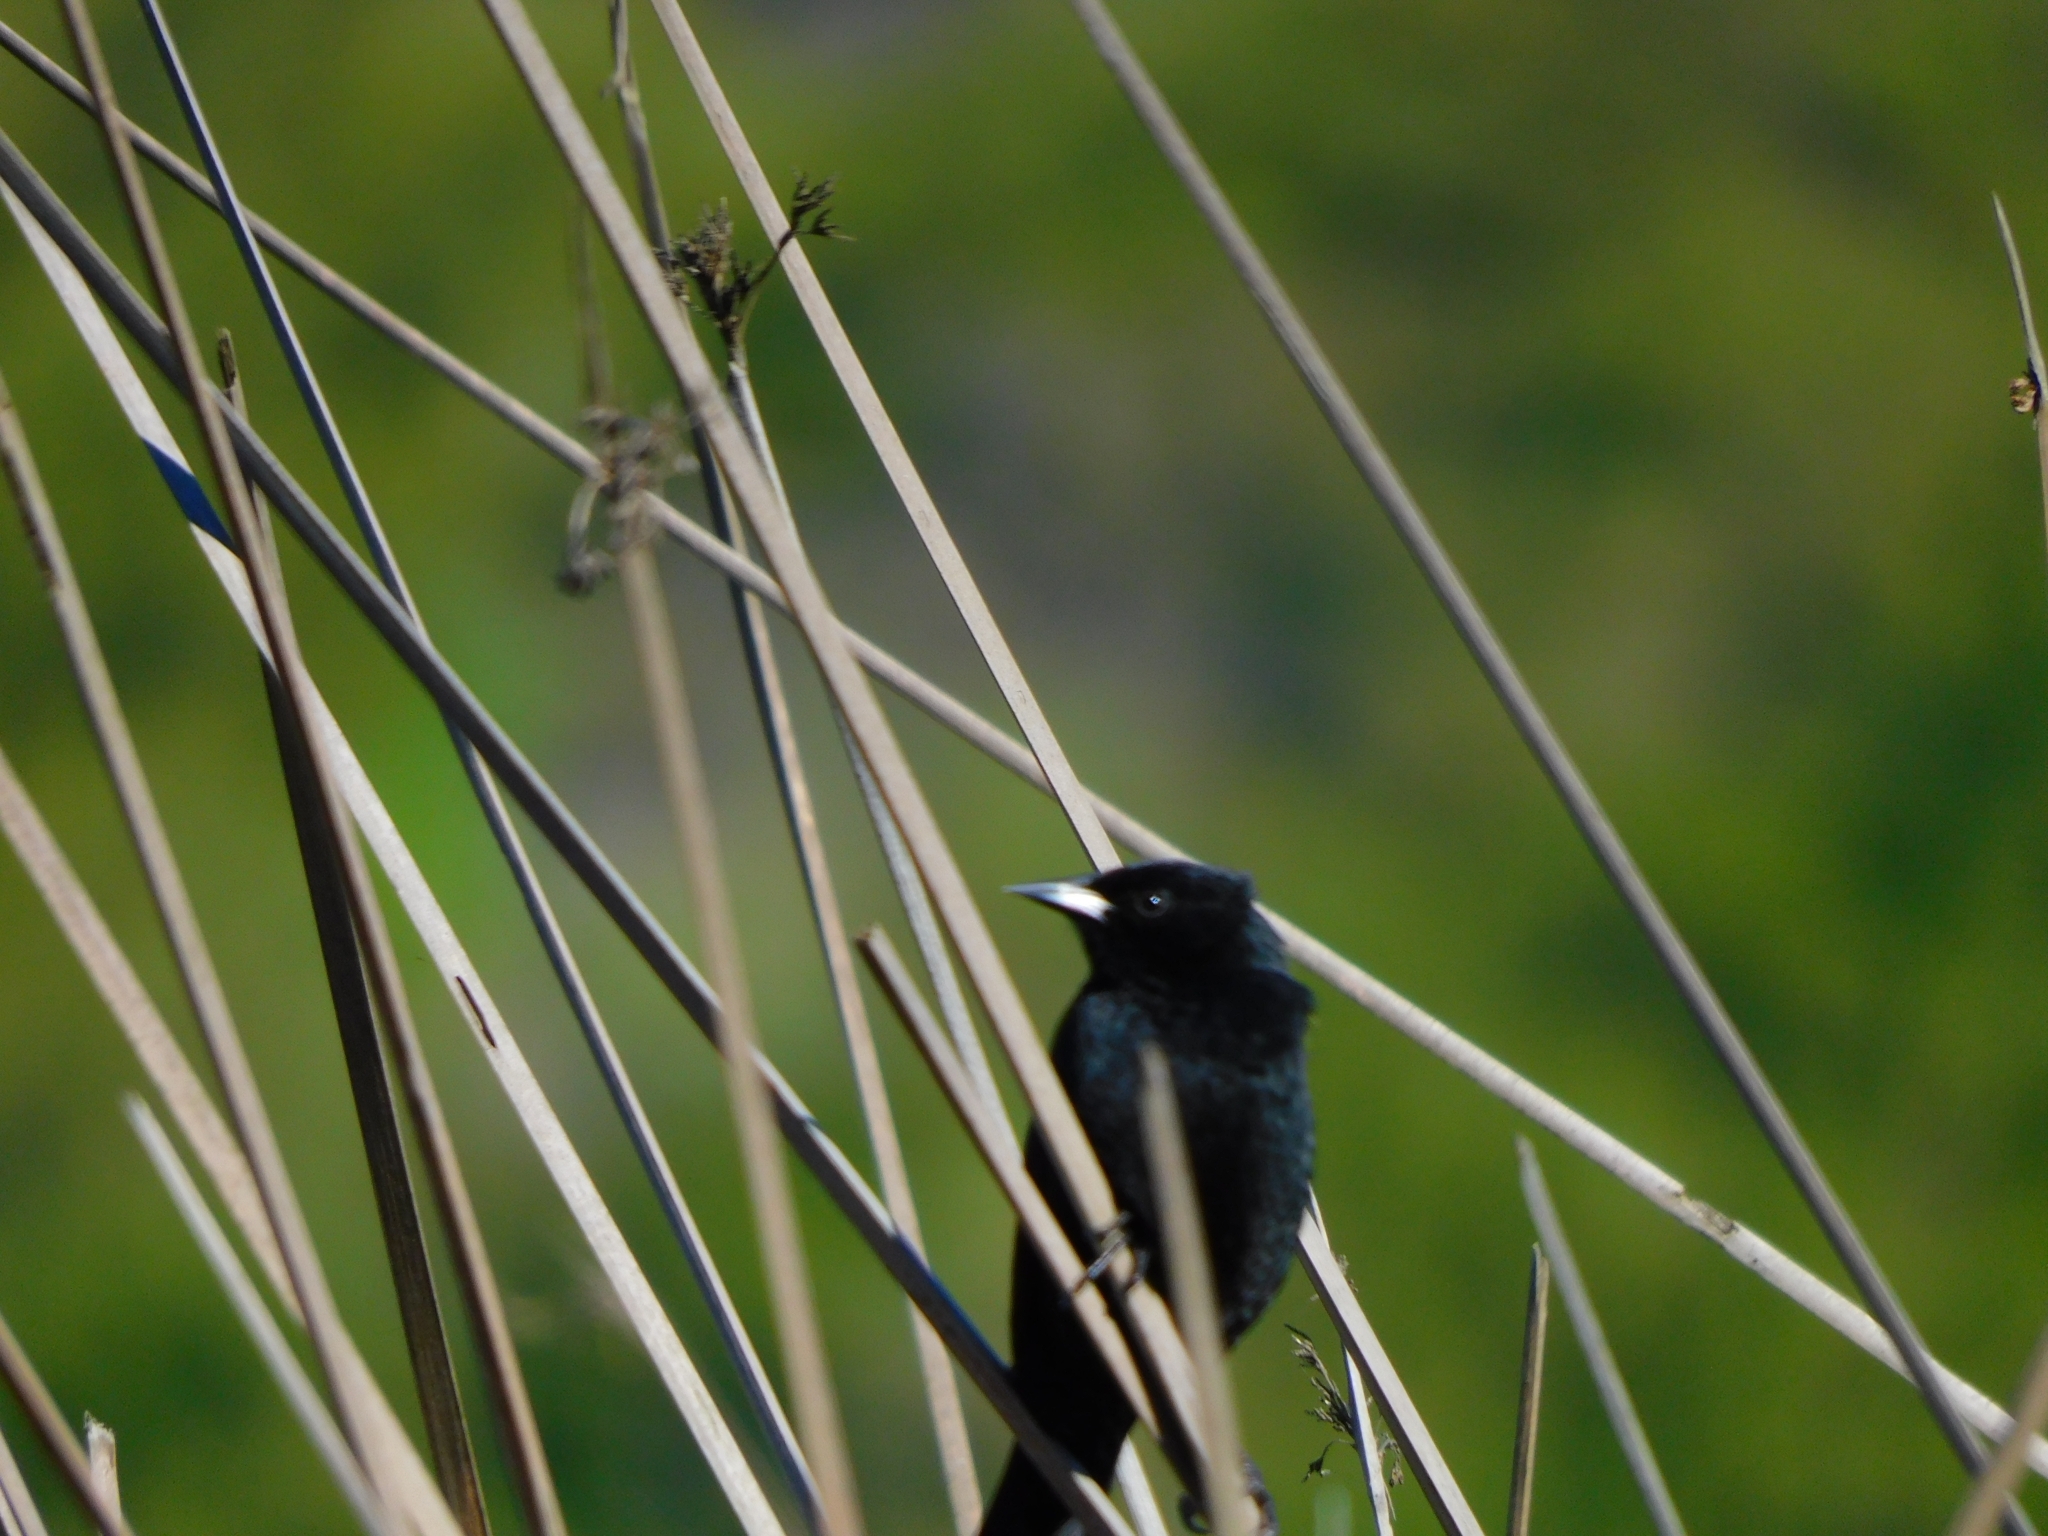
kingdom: Animalia
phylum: Chordata
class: Aves
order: Passeriformes
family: Icteridae
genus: Agelasticus
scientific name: Agelasticus thilius
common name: Yellow-winged blackbird
